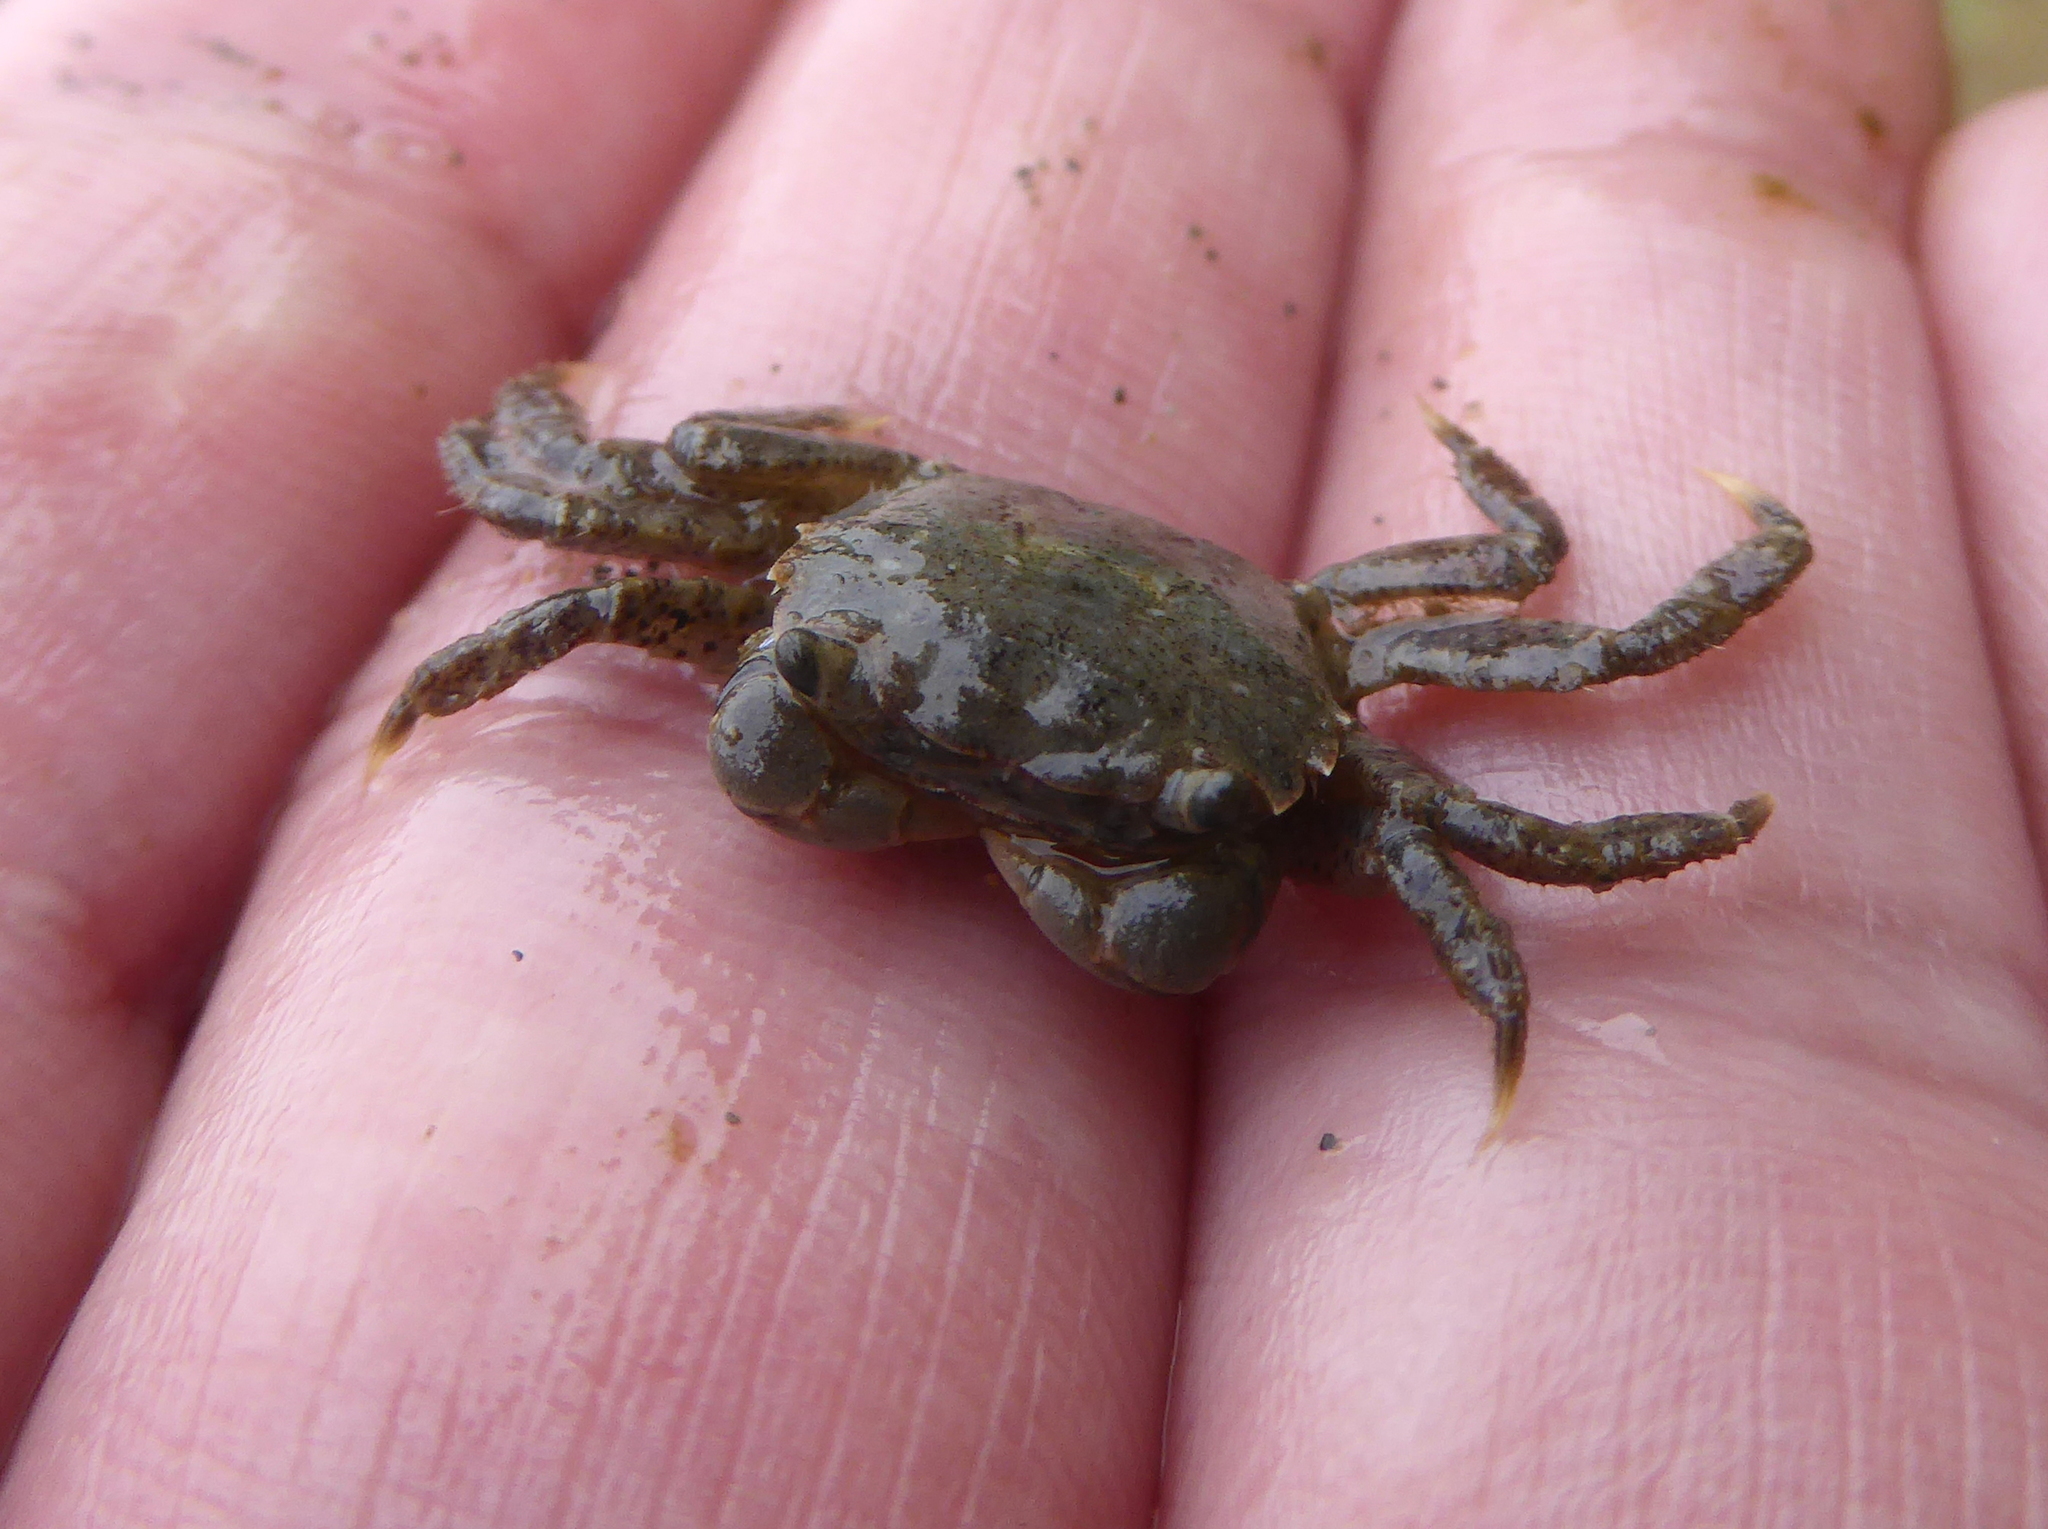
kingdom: Animalia
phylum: Arthropoda
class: Malacostraca
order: Decapoda
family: Varunidae
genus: Hemigrapsus
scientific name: Hemigrapsus oregonensis
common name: Yellow shore crab
